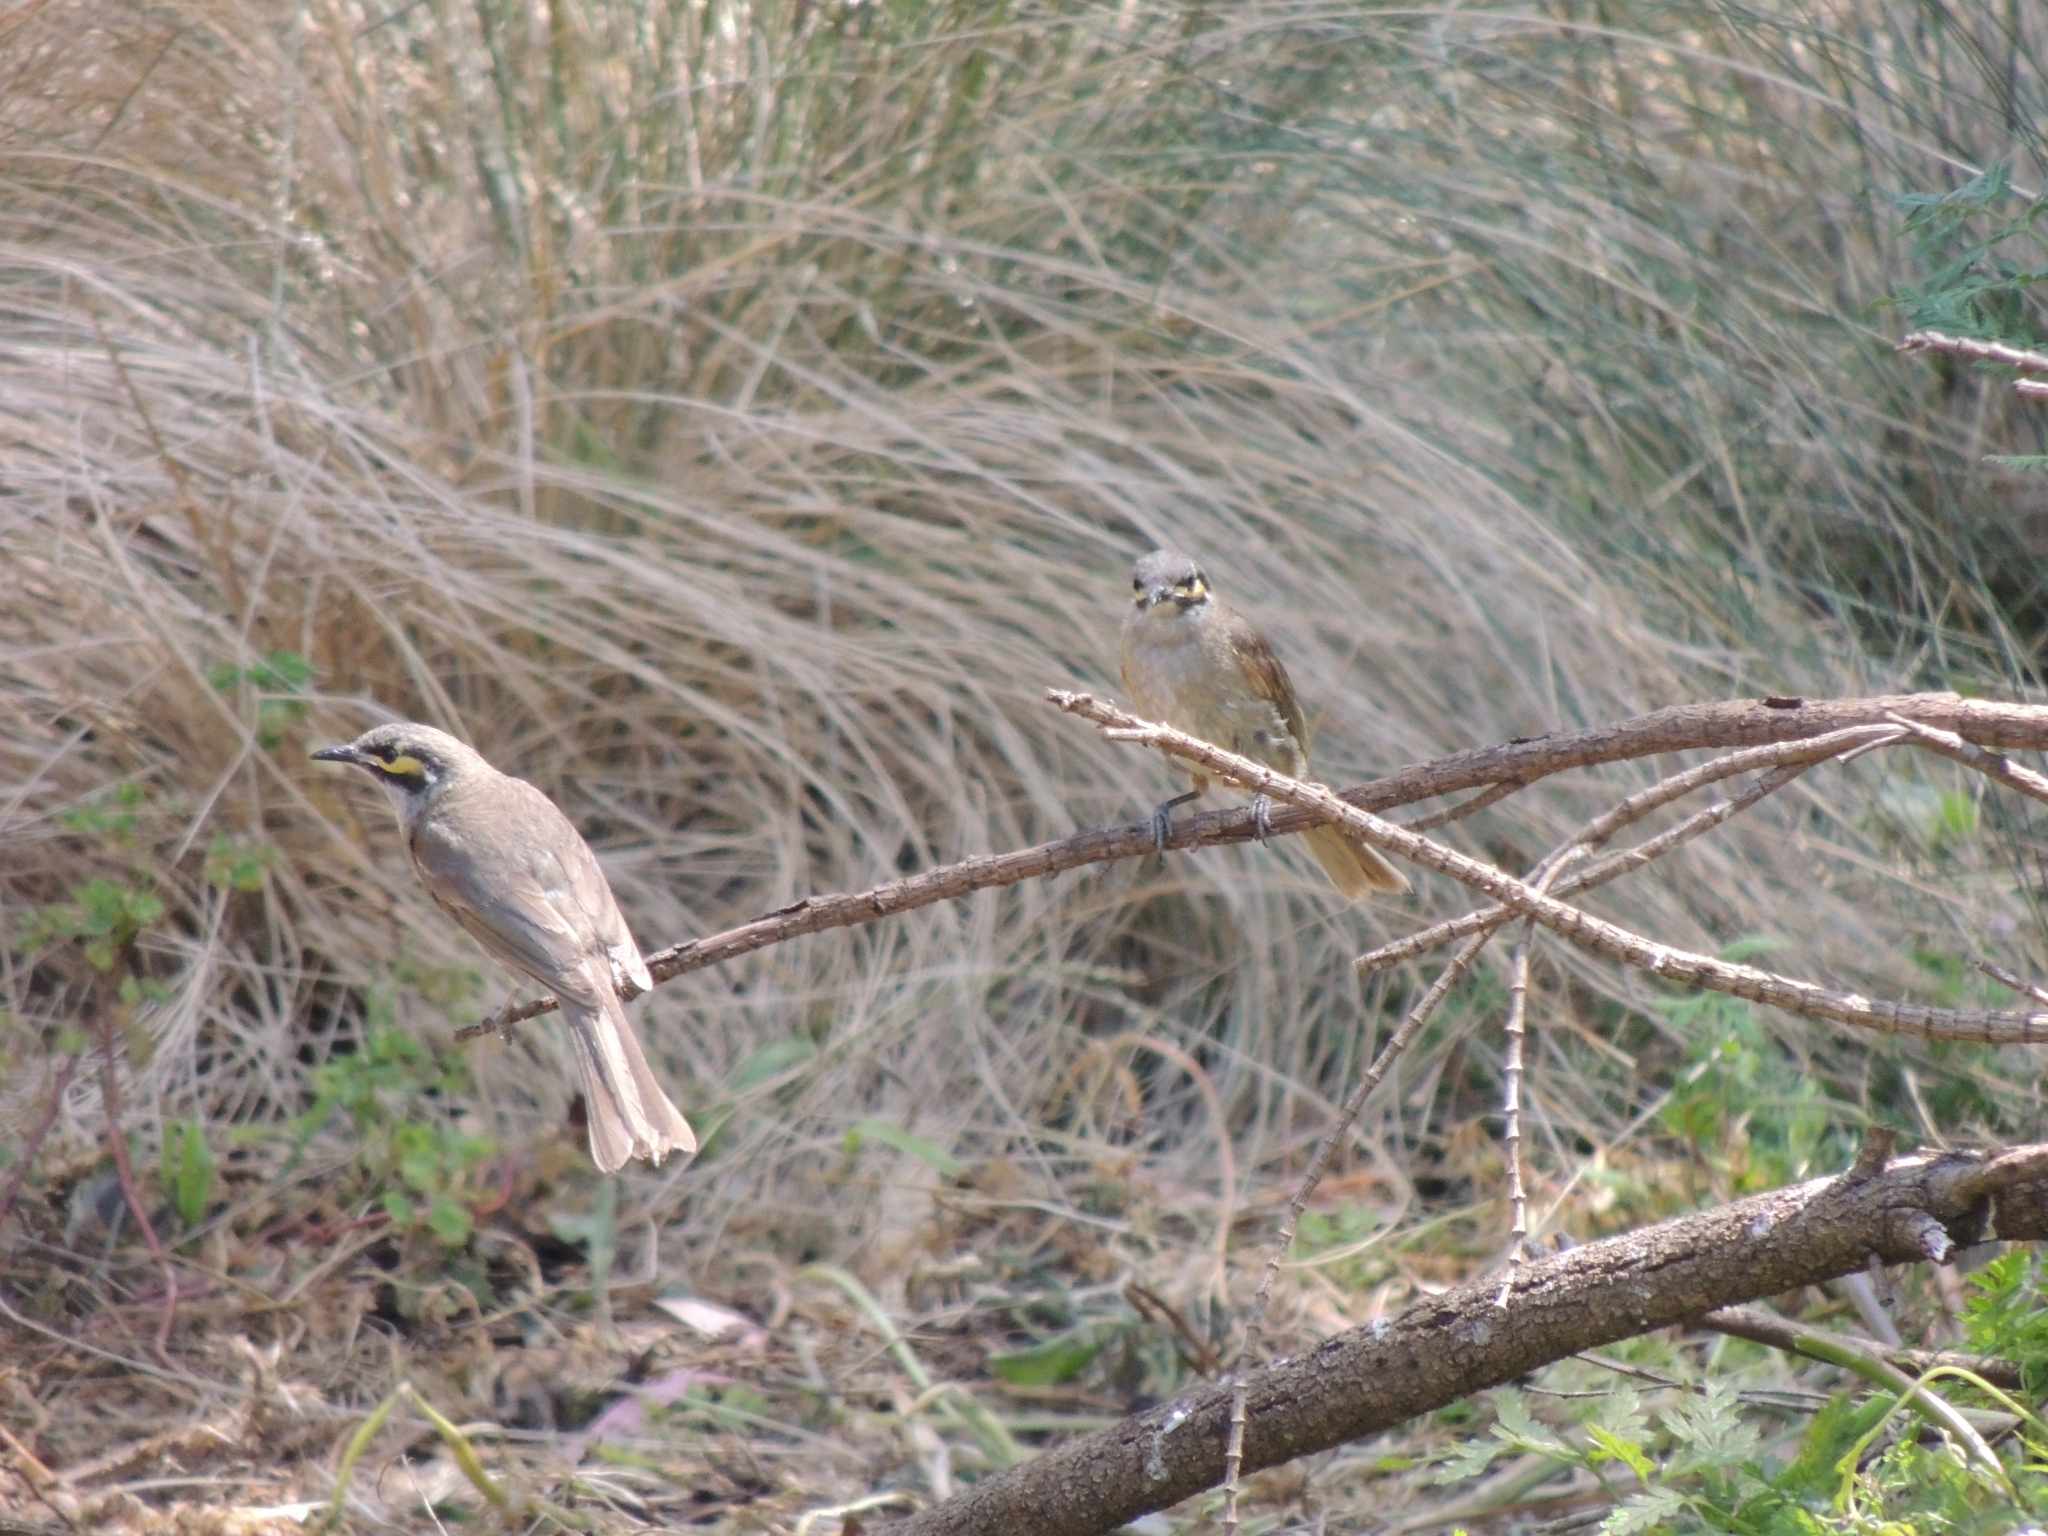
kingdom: Animalia
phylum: Chordata
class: Aves
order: Passeriformes
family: Meliphagidae
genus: Caligavis
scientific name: Caligavis chrysops
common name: Yellow-faced honeyeater
